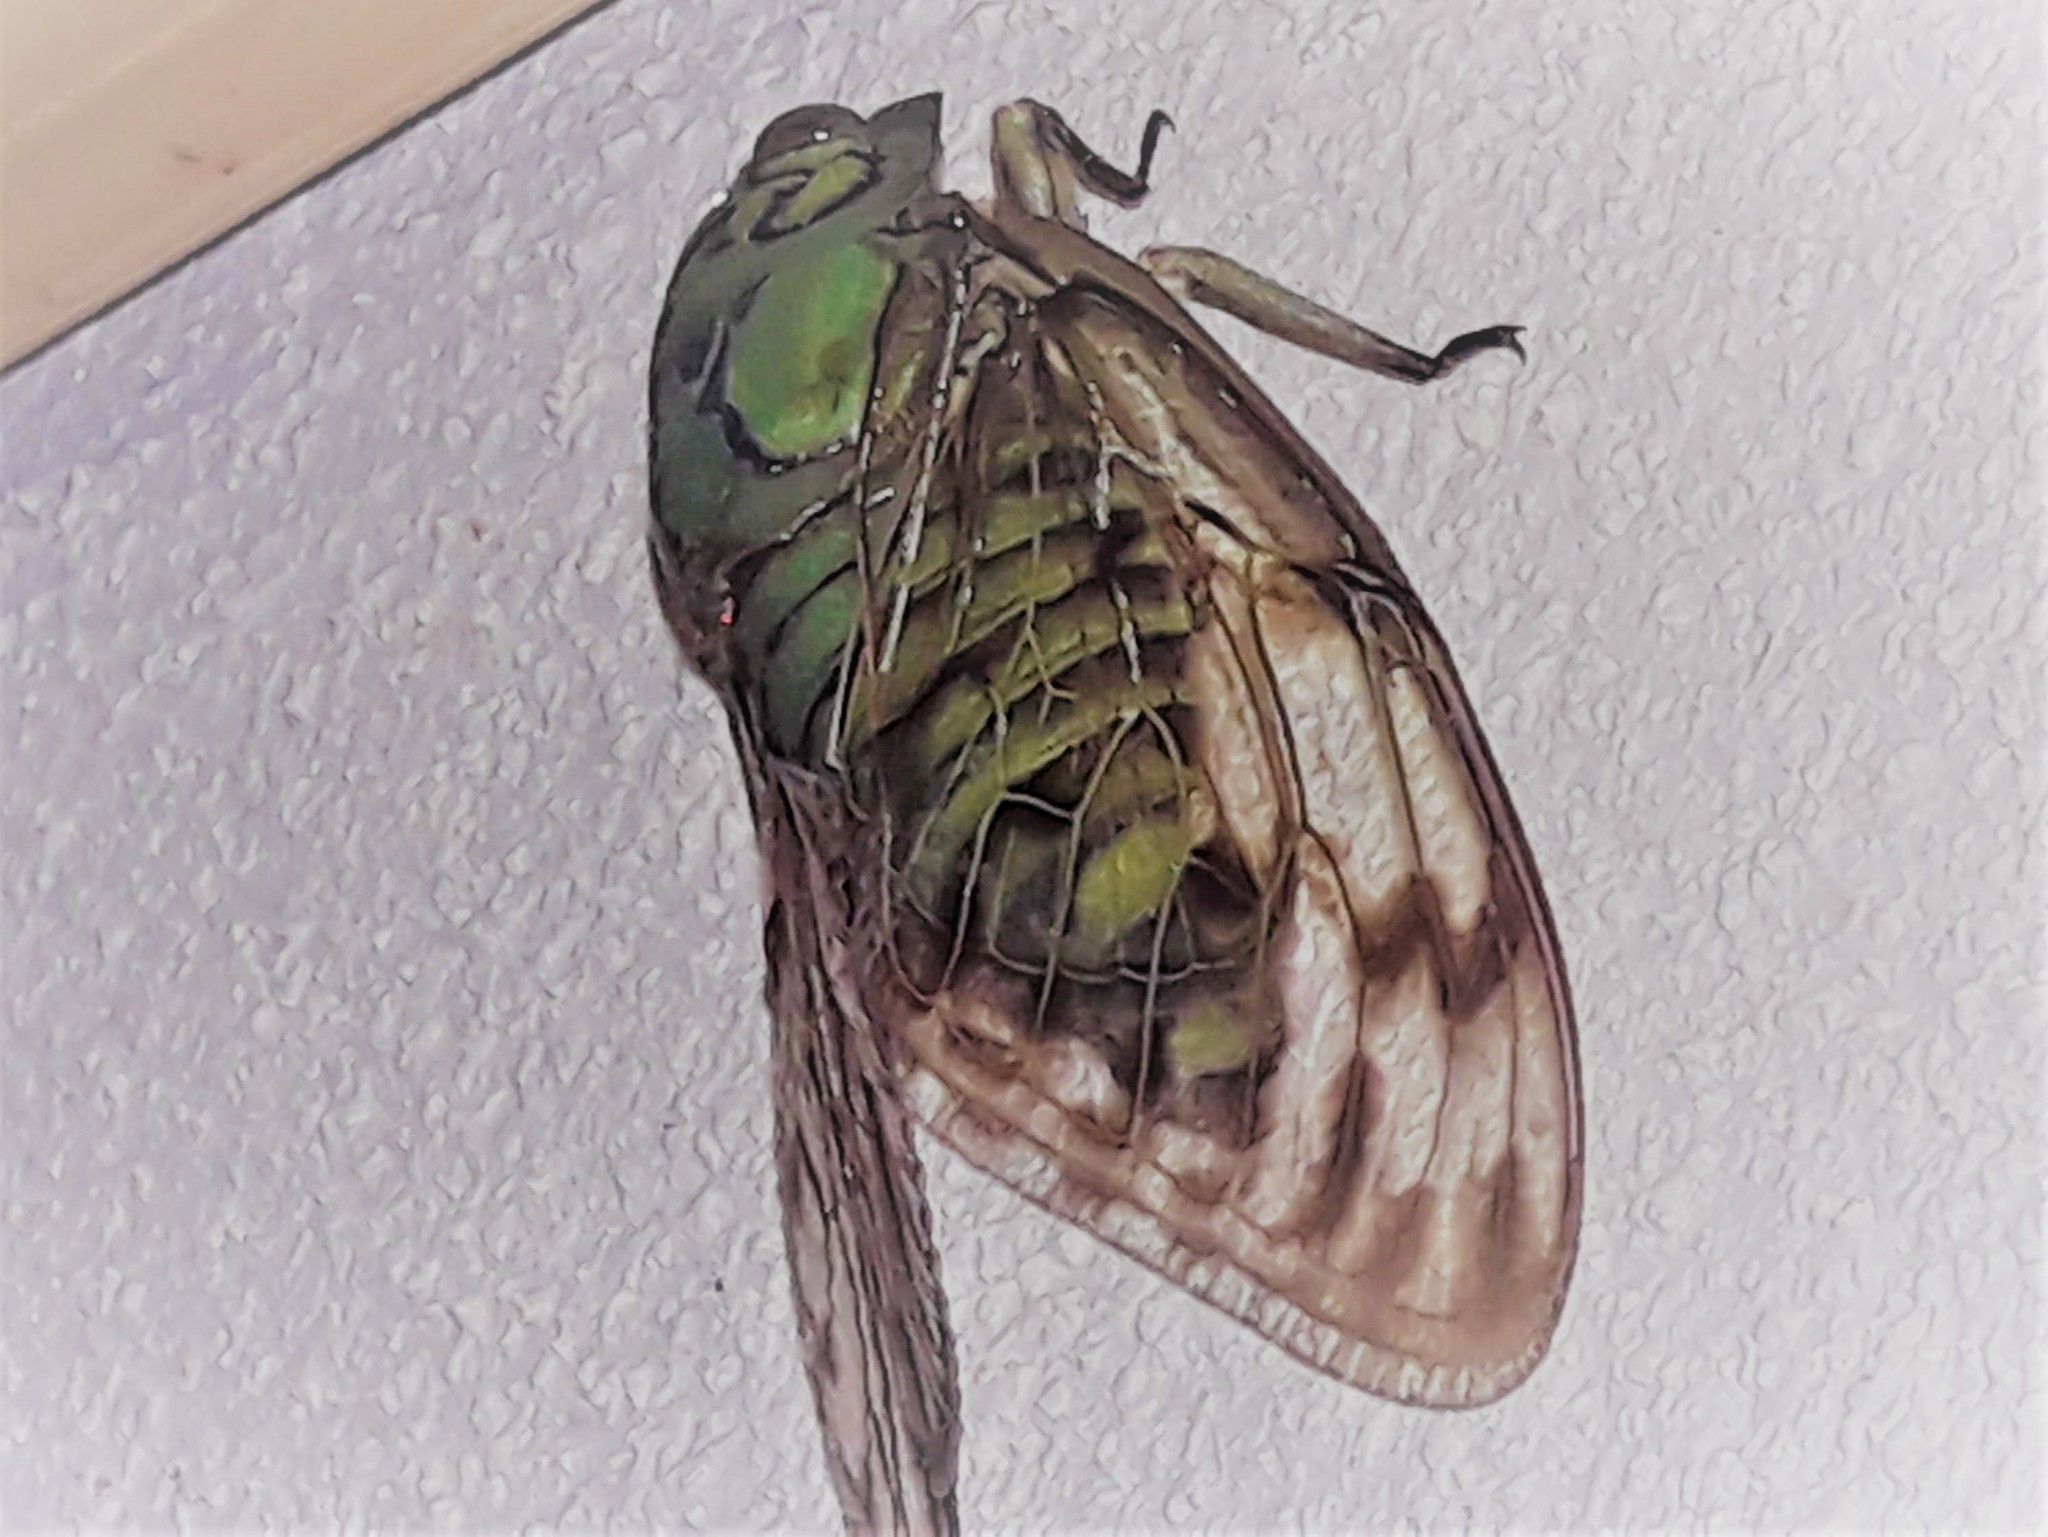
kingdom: Animalia
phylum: Arthropoda
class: Insecta
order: Hemiptera
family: Cicadidae
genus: Miranha
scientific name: Miranha imbellis
